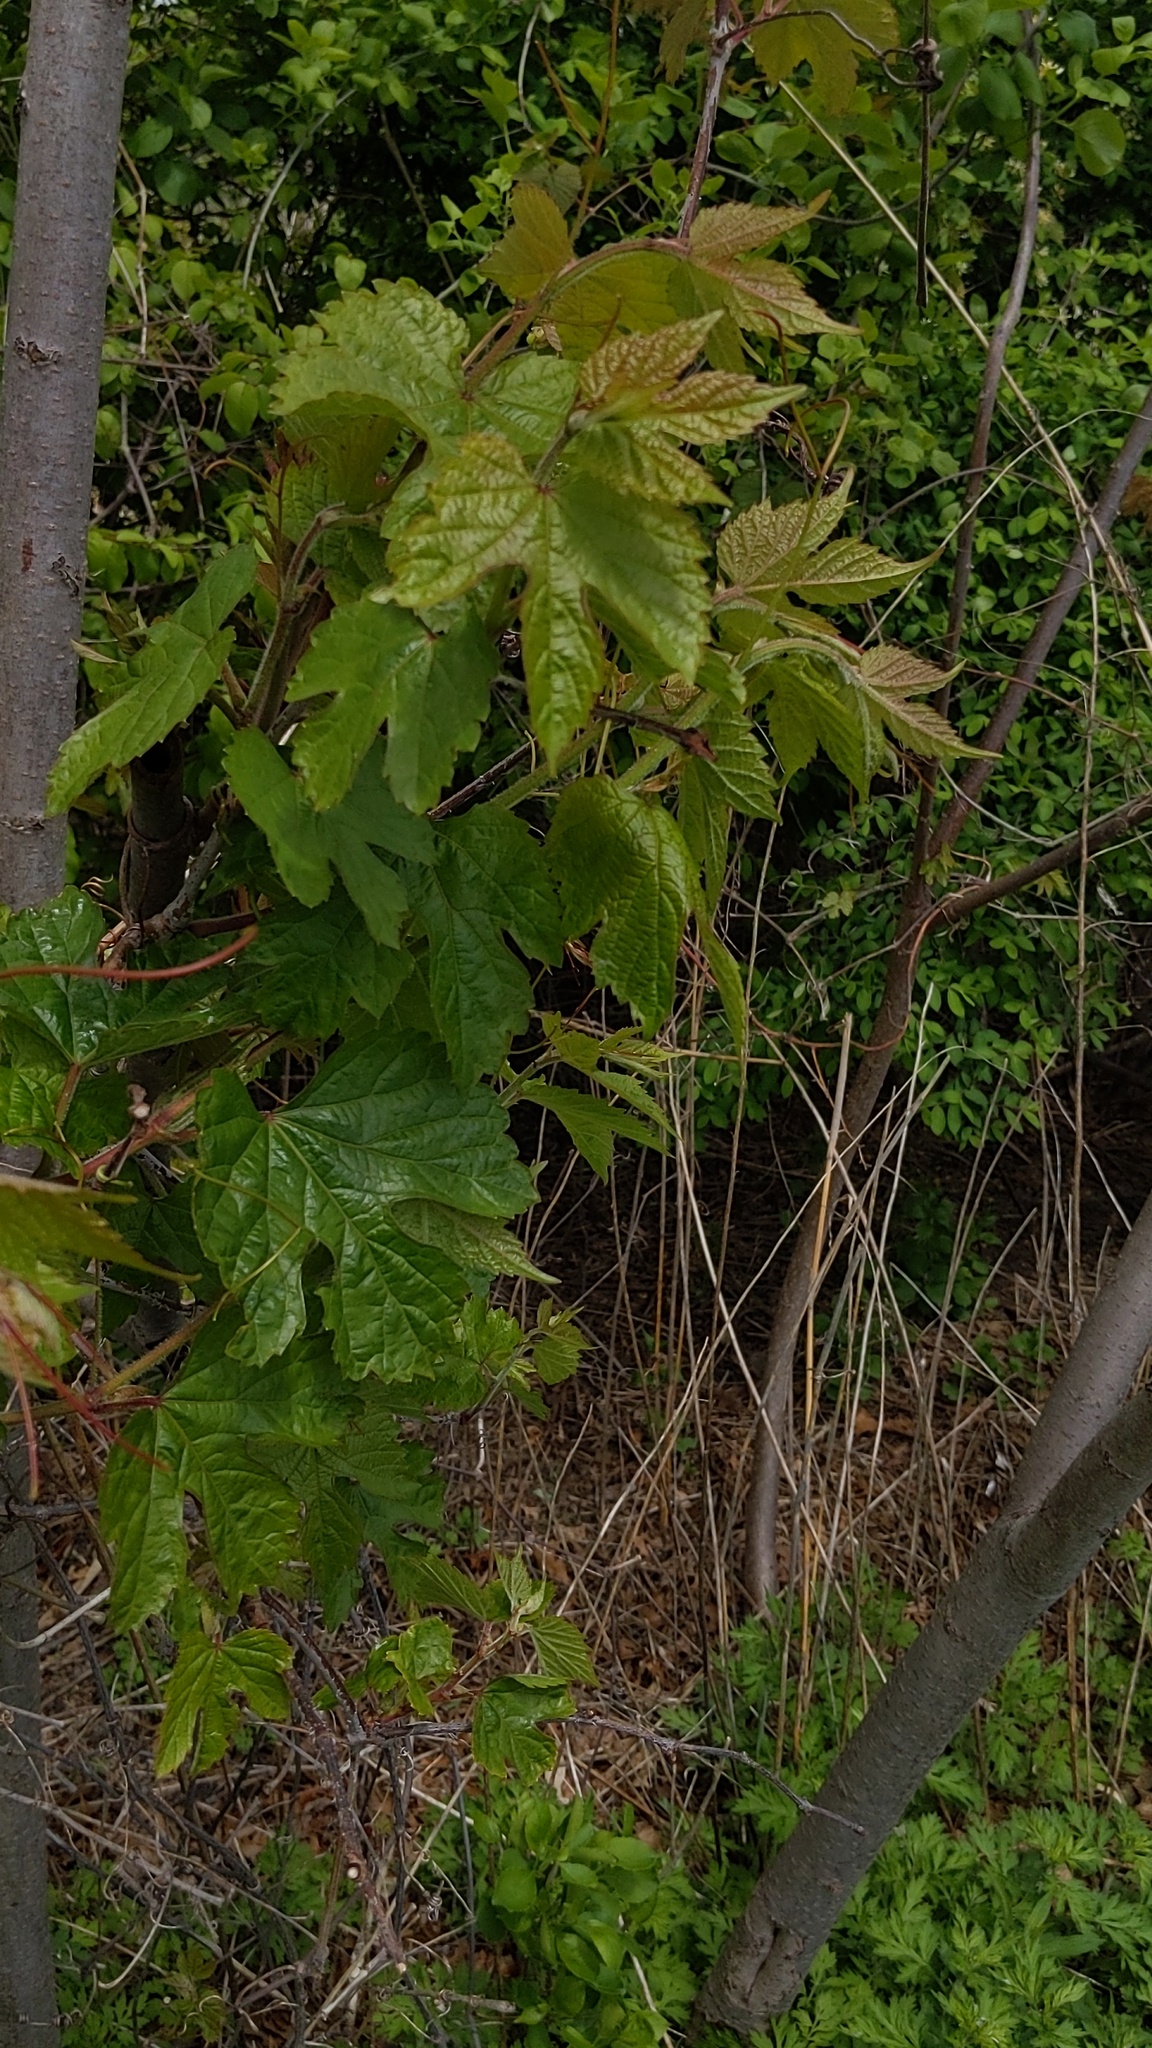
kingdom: Plantae
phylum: Tracheophyta
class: Magnoliopsida
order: Vitales
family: Vitaceae
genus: Ampelopsis
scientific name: Ampelopsis glandulosa
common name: Amur peppervine
